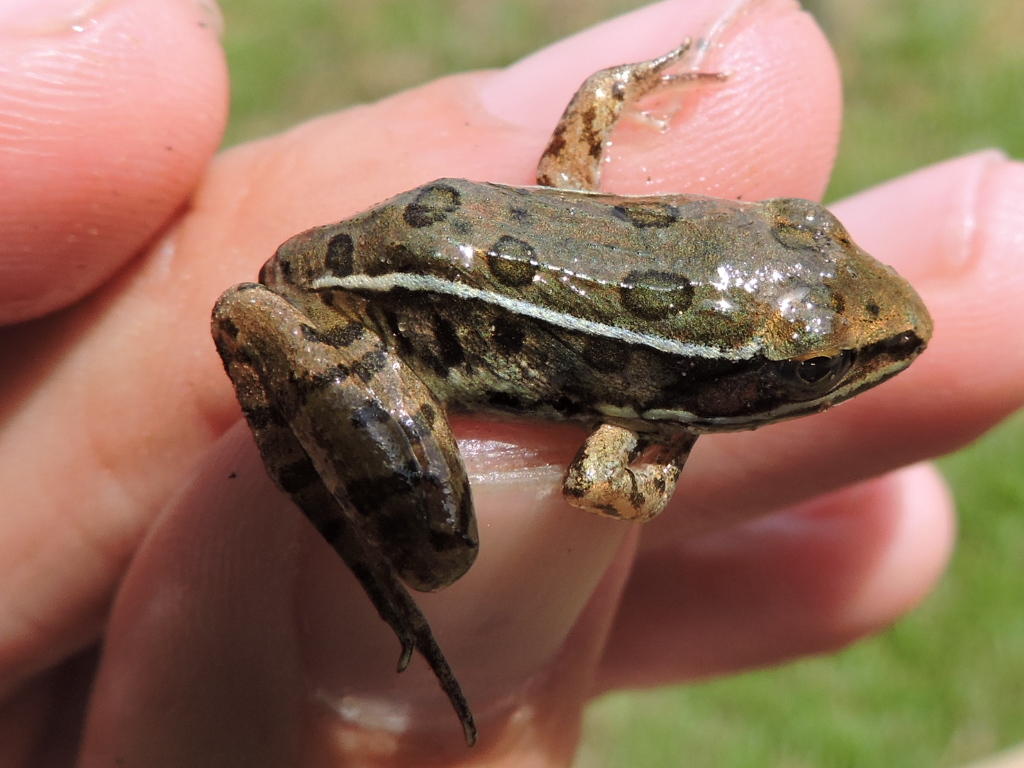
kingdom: Animalia
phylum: Chordata
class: Amphibia
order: Anura
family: Ranidae
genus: Lithobates
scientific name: Lithobates sphenocephalus
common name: Southern leopard frog
